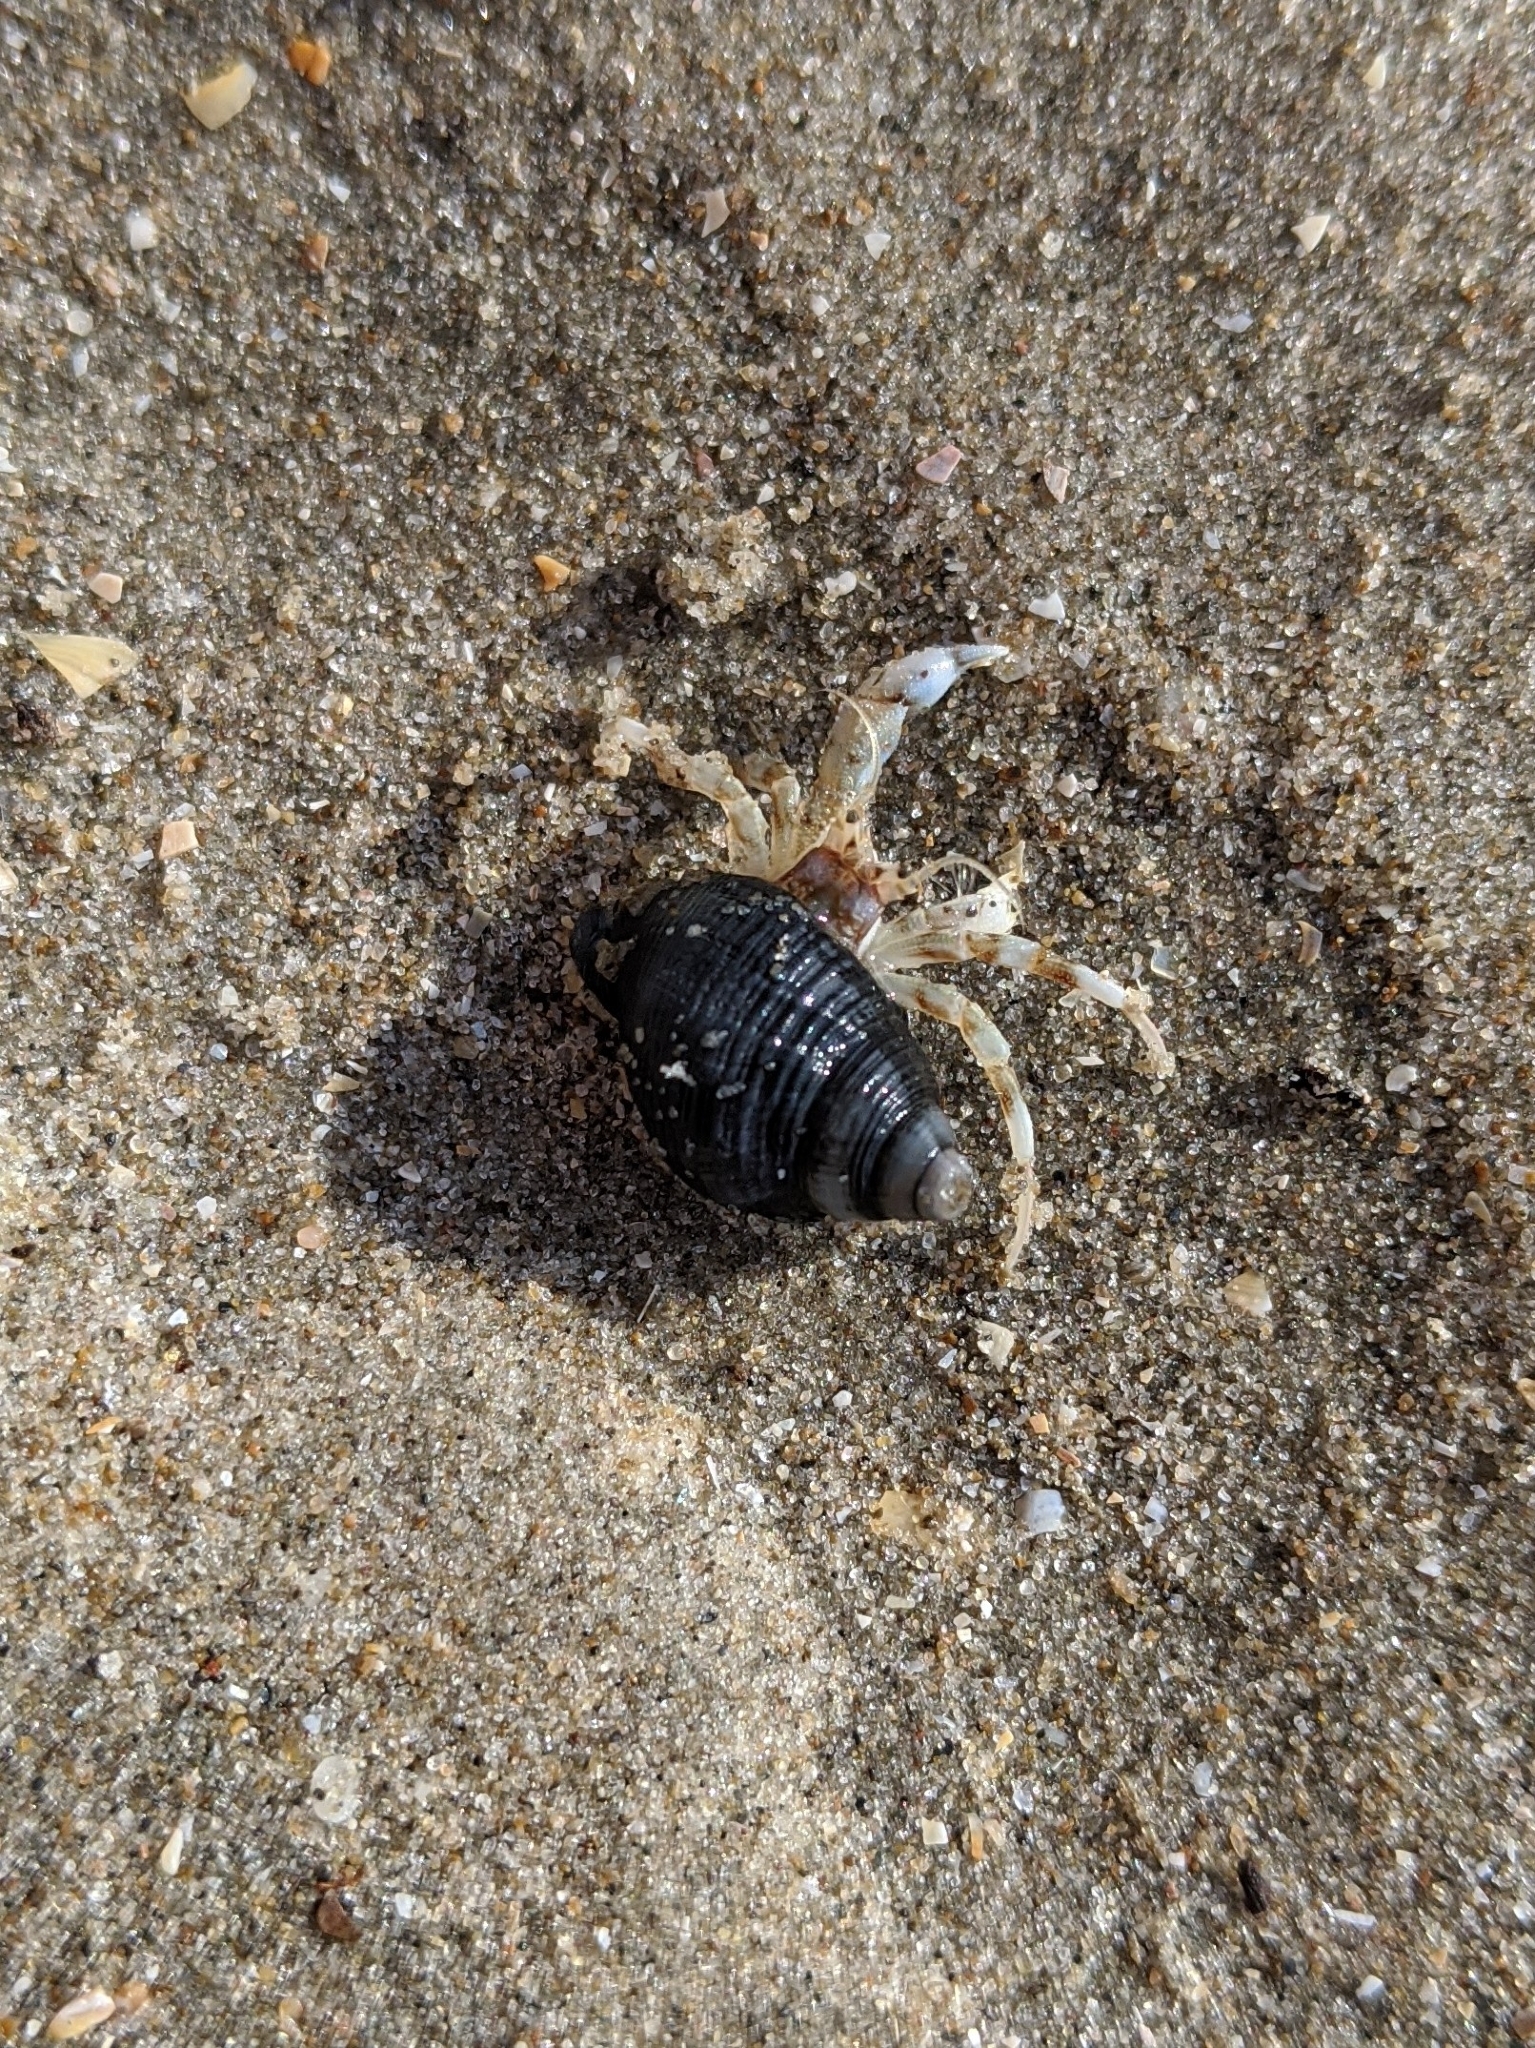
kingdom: Animalia
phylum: Arthropoda
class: Malacostraca
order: Decapoda
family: Diogenidae
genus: Diogenes
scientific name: Diogenes pugilator
